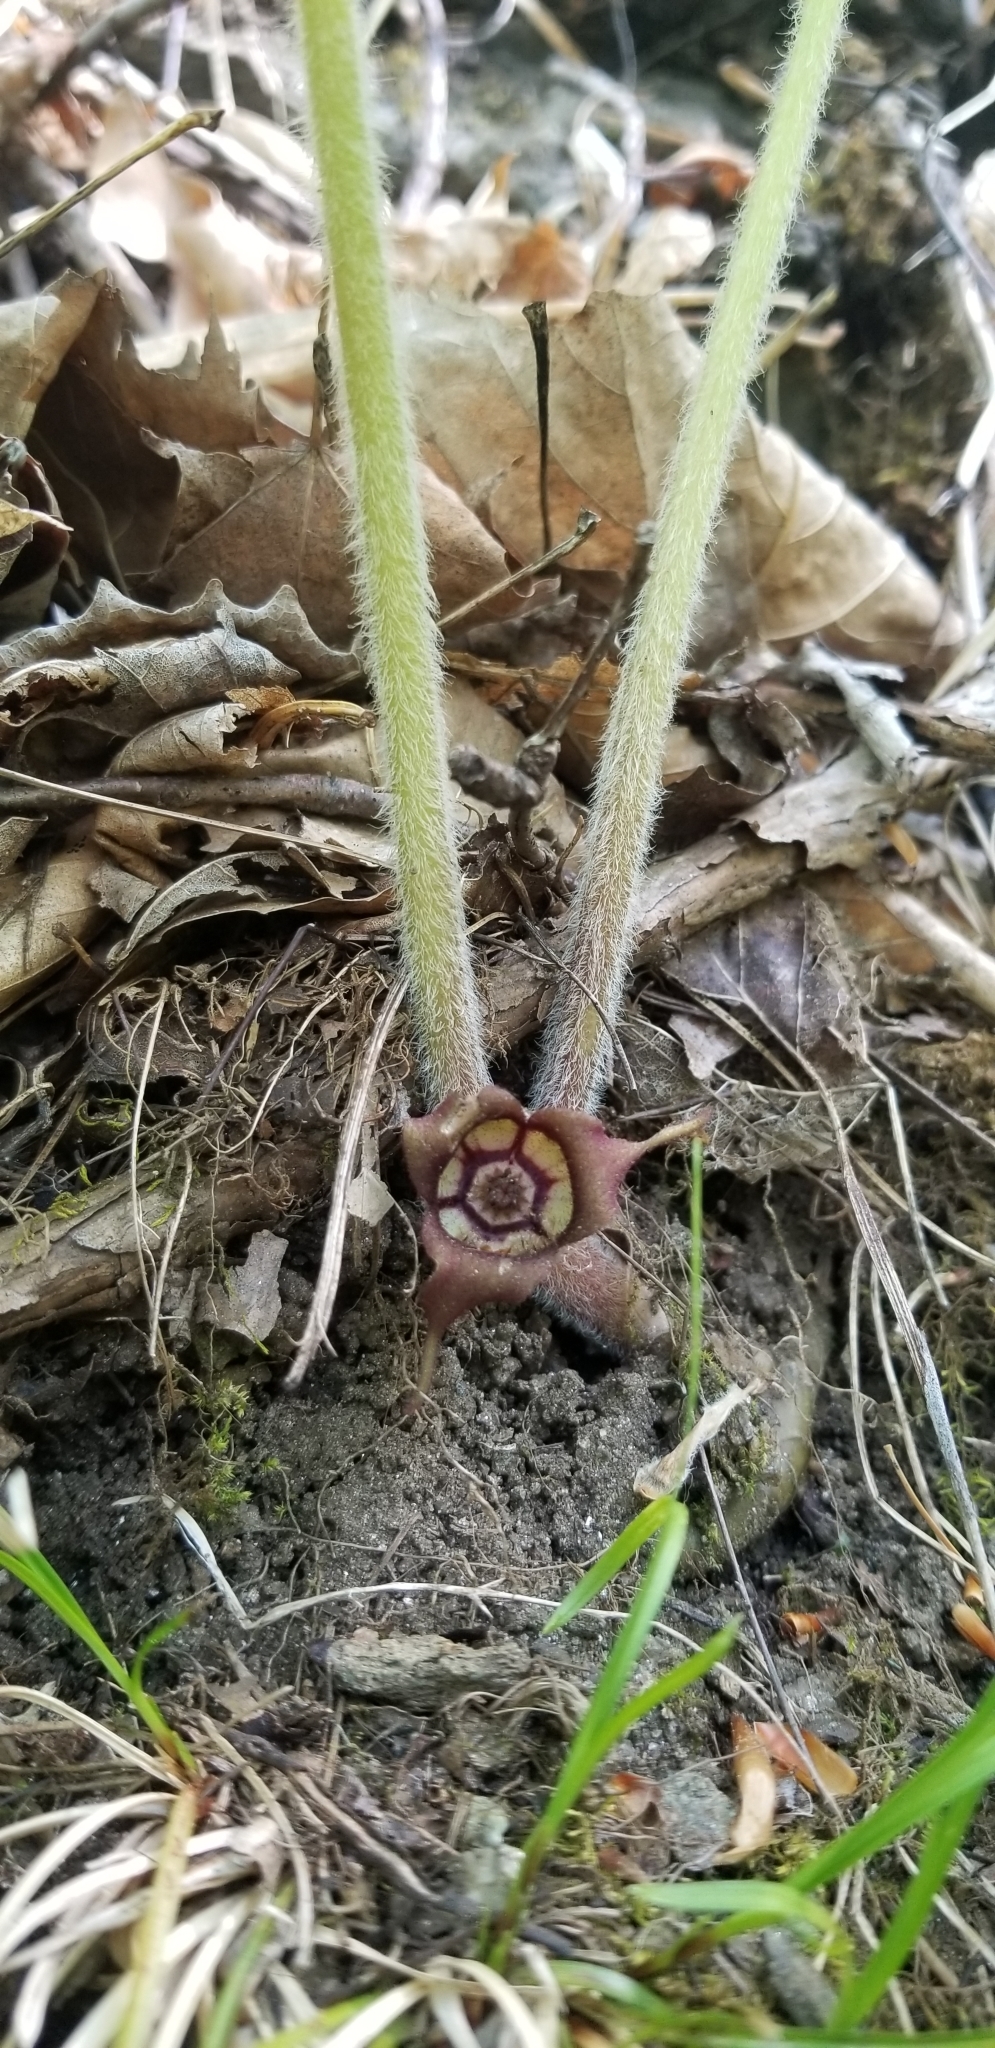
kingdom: Plantae
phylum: Tracheophyta
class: Magnoliopsida
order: Piperales
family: Aristolochiaceae
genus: Asarum
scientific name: Asarum canadense
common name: Wild ginger
